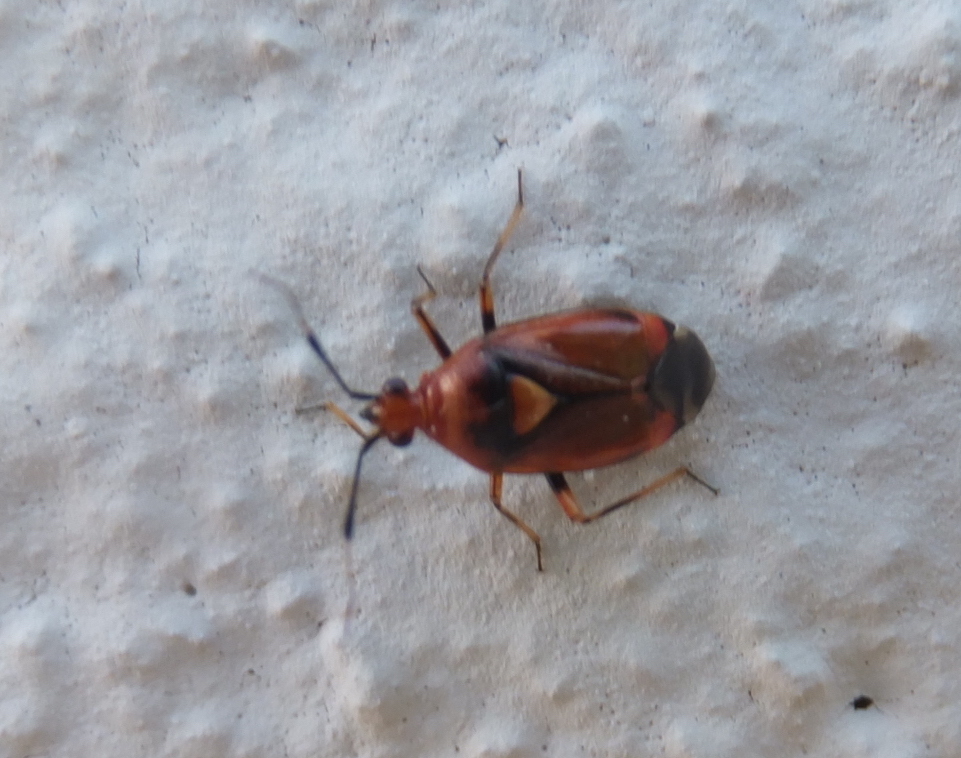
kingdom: Animalia
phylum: Arthropoda
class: Insecta
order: Hemiptera
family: Miridae
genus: Deraeocoris
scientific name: Deraeocoris ruber
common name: Plant bug
